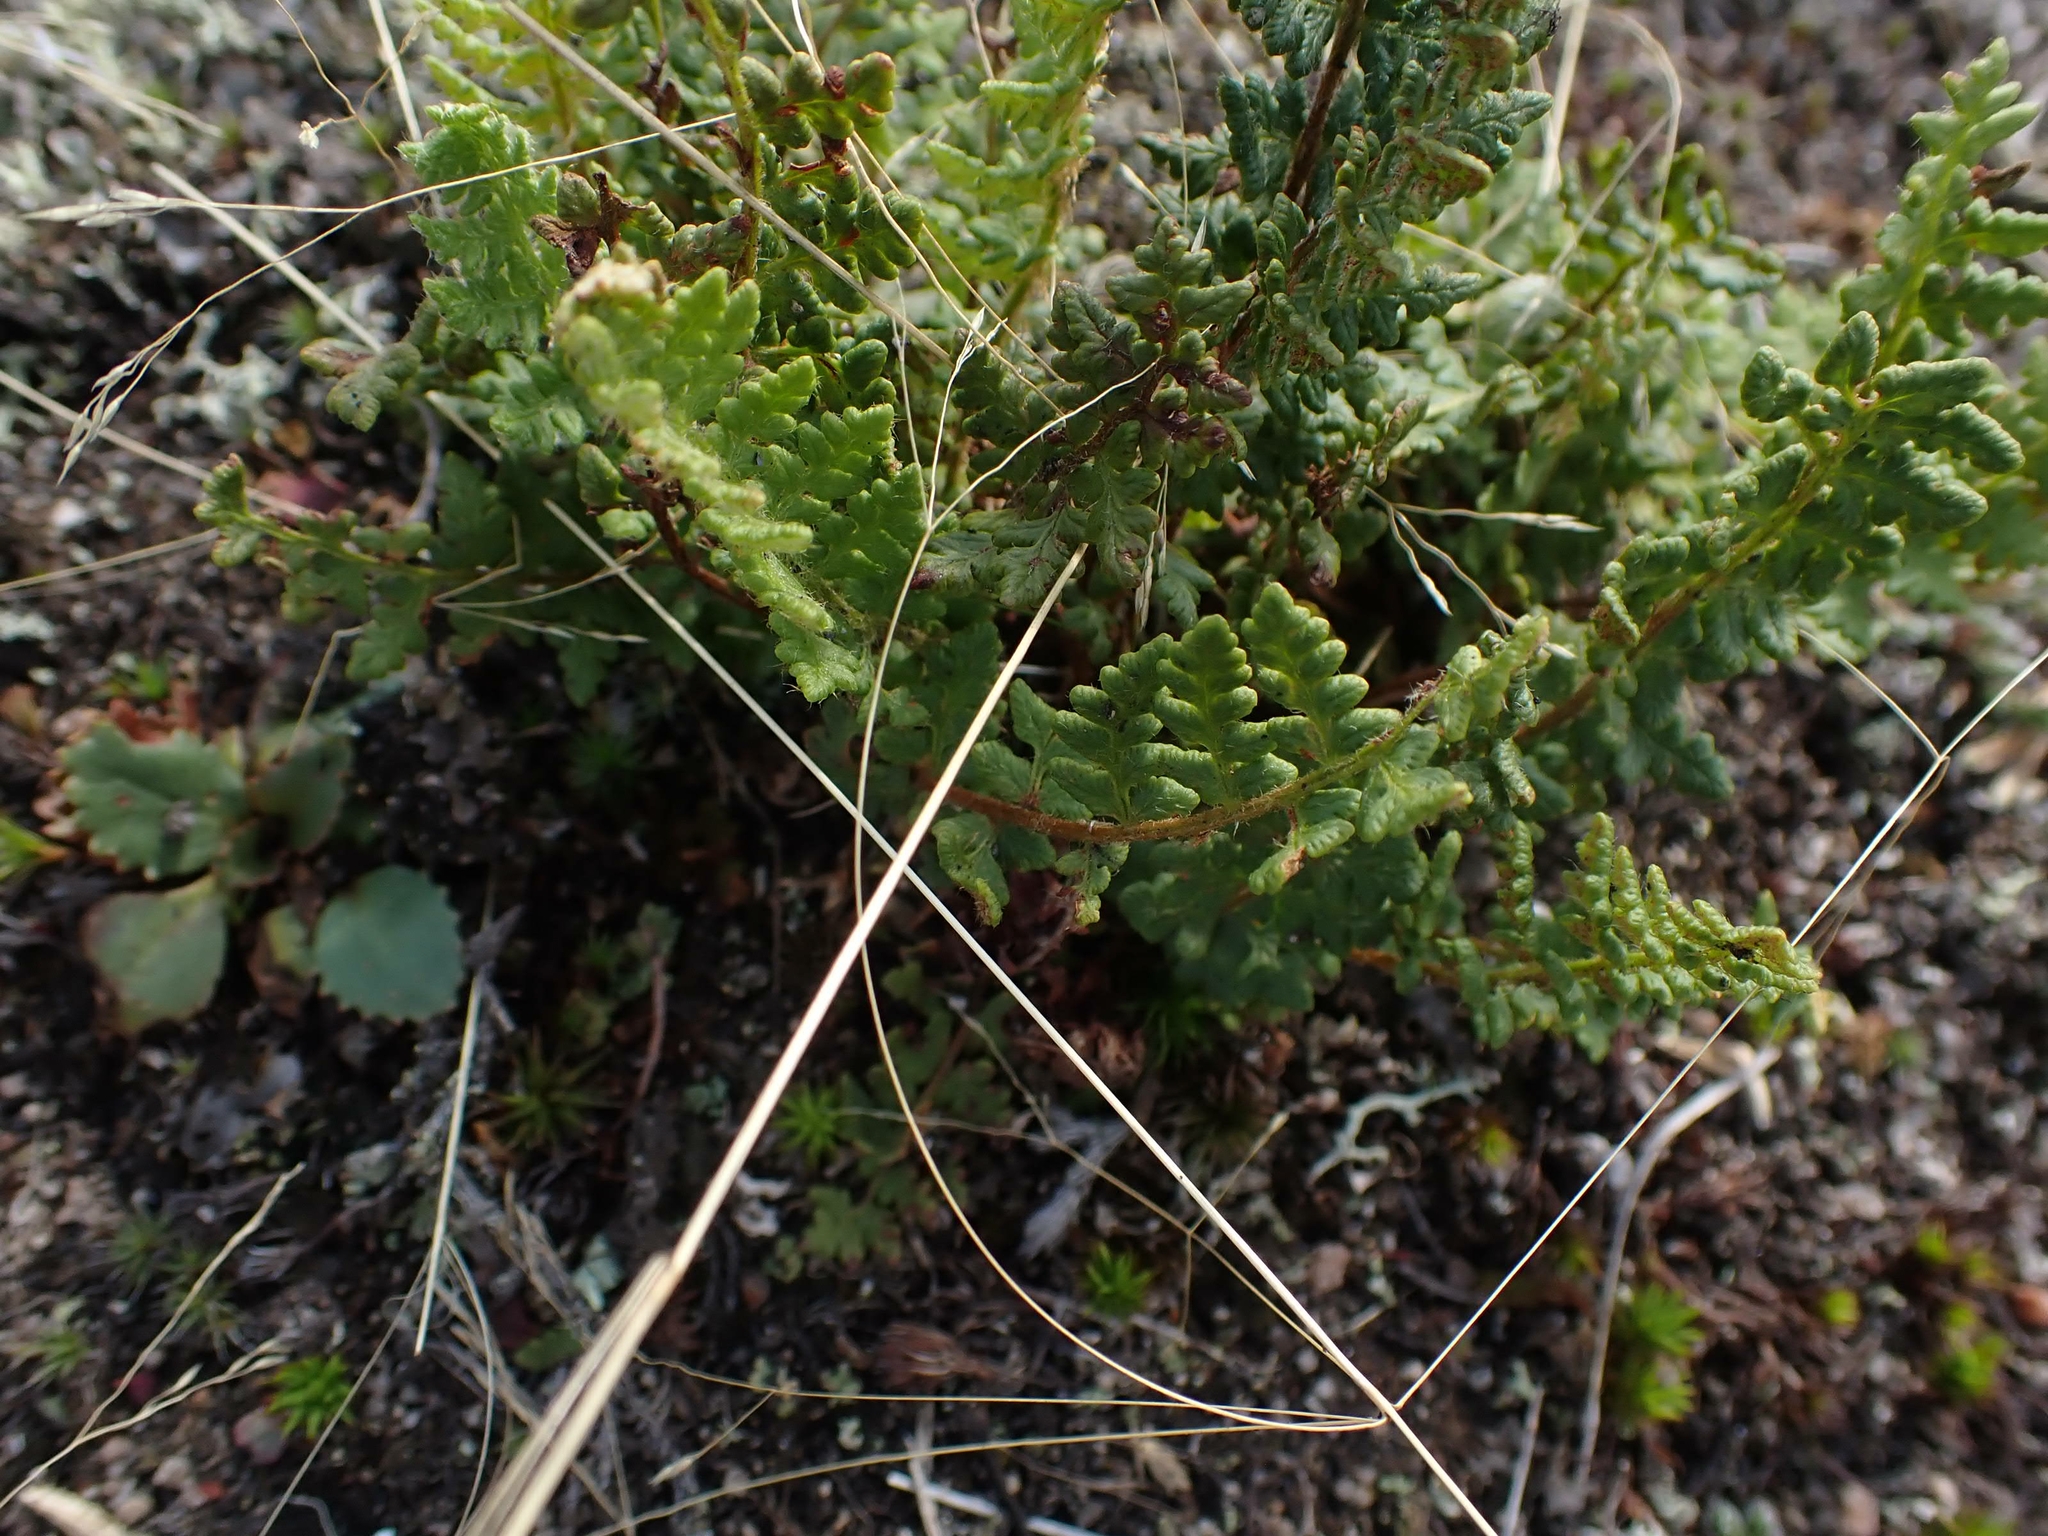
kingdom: Plantae
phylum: Tracheophyta
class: Polypodiopsida
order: Polypodiales
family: Woodsiaceae
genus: Woodsia
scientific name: Woodsia ilvensis
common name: Fragrant woodsia
